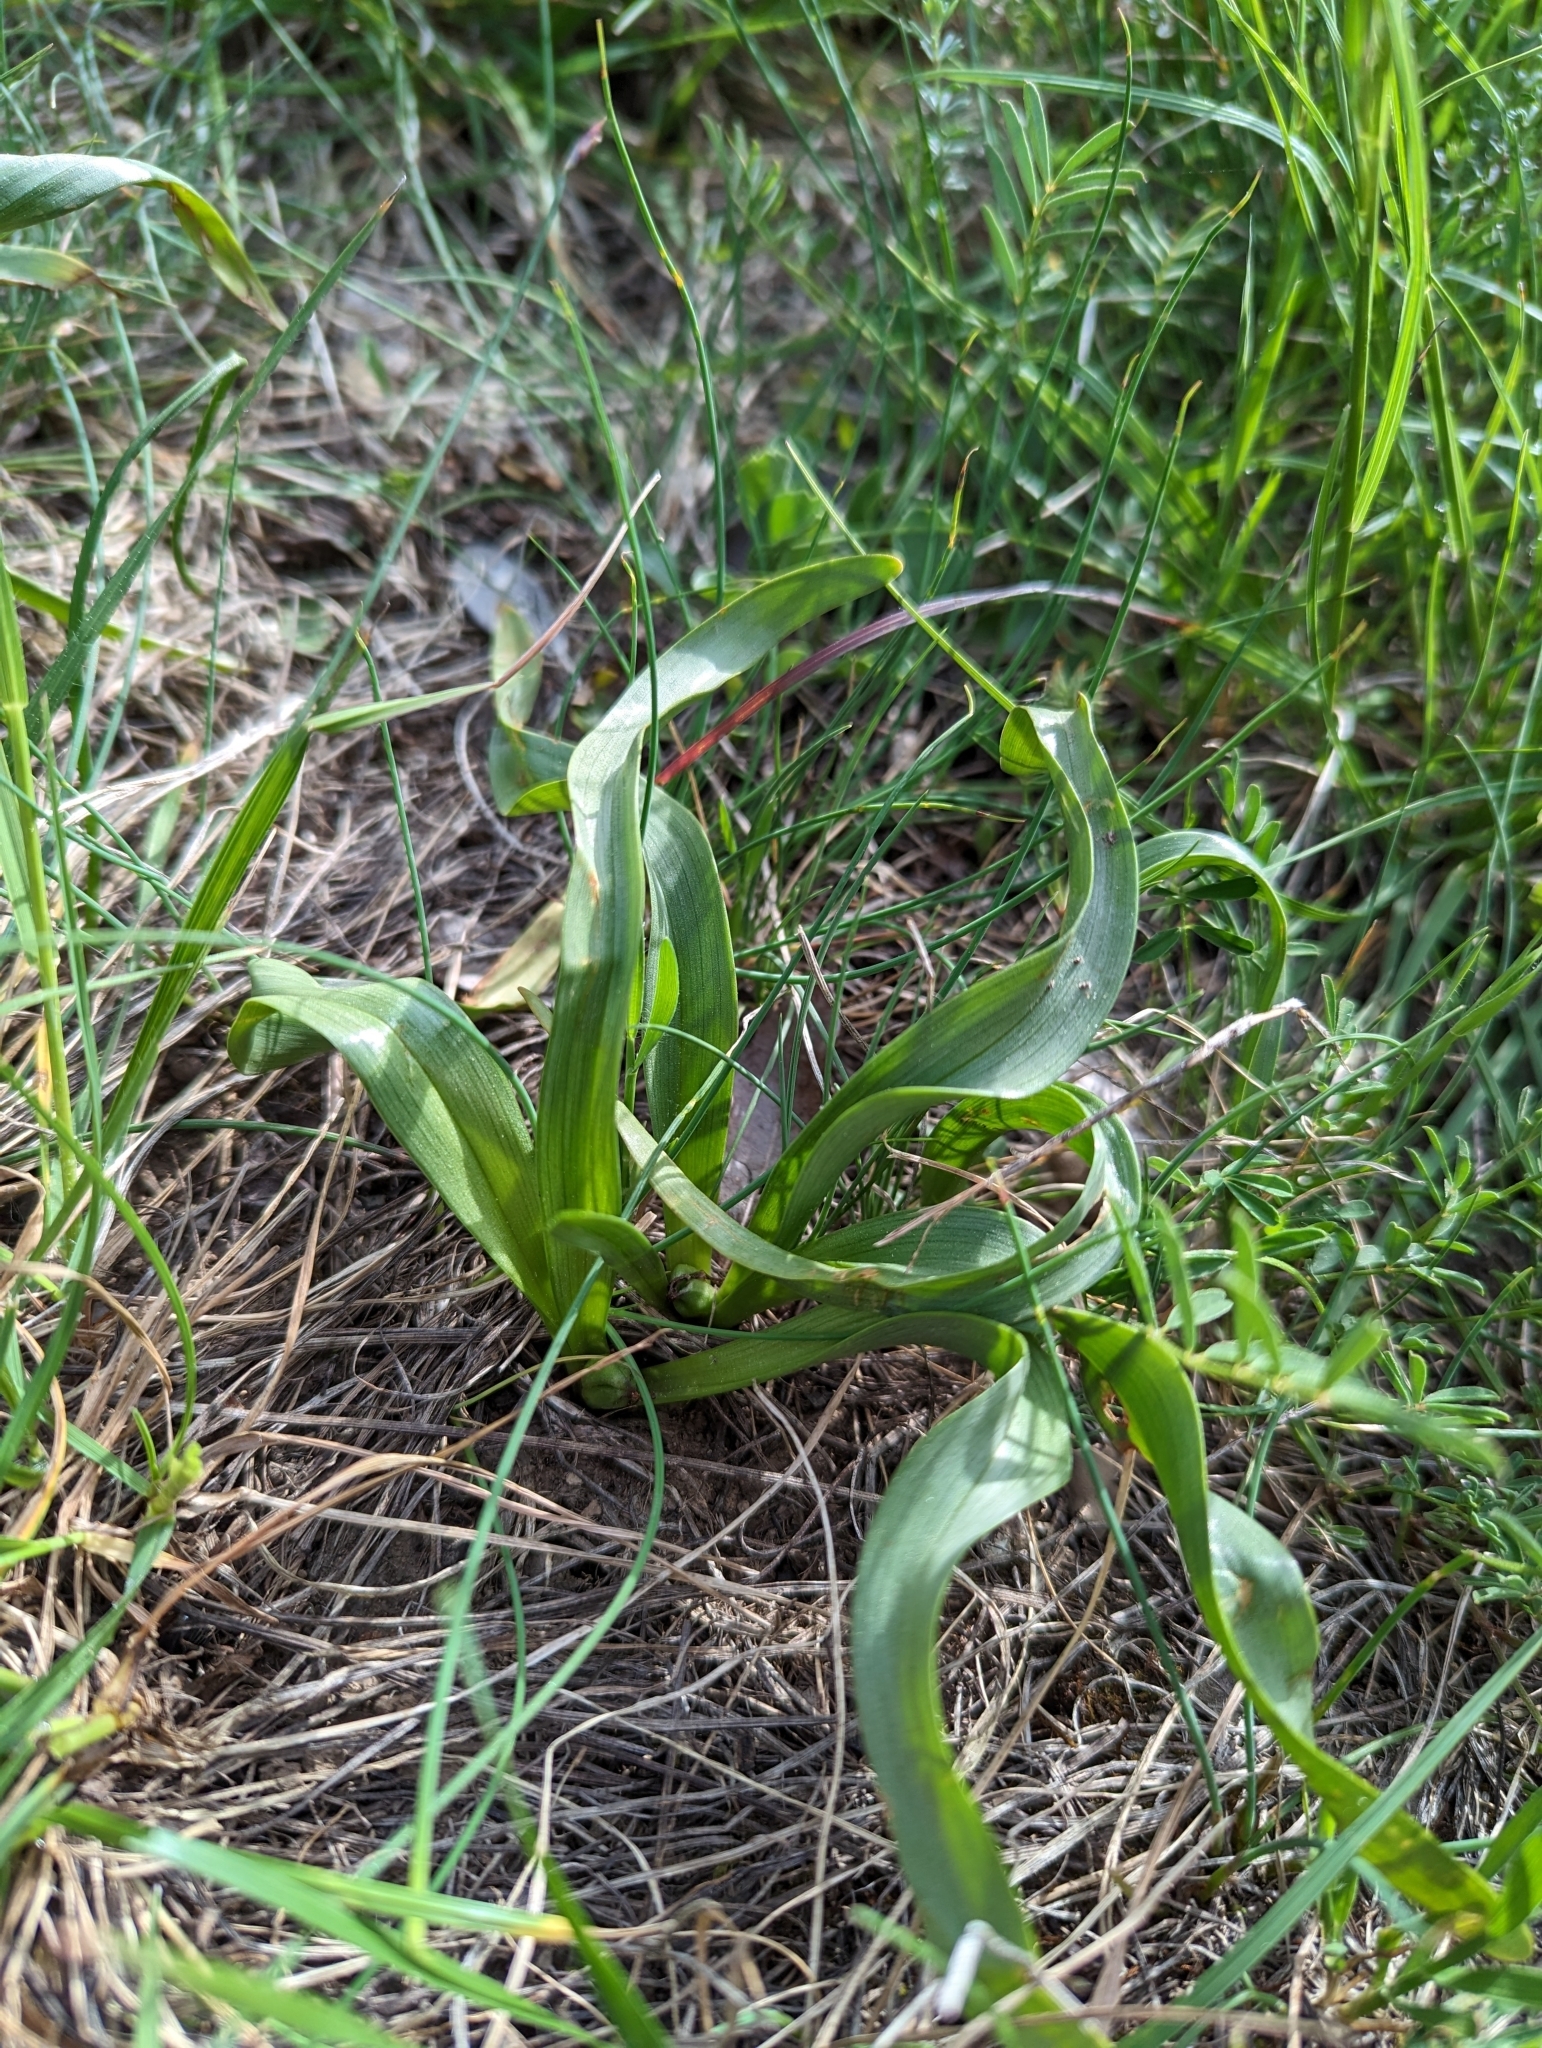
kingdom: Plantae
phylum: Tracheophyta
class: Liliopsida
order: Liliales
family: Colchicaceae
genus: Colchicum
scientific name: Colchicum longifolium
